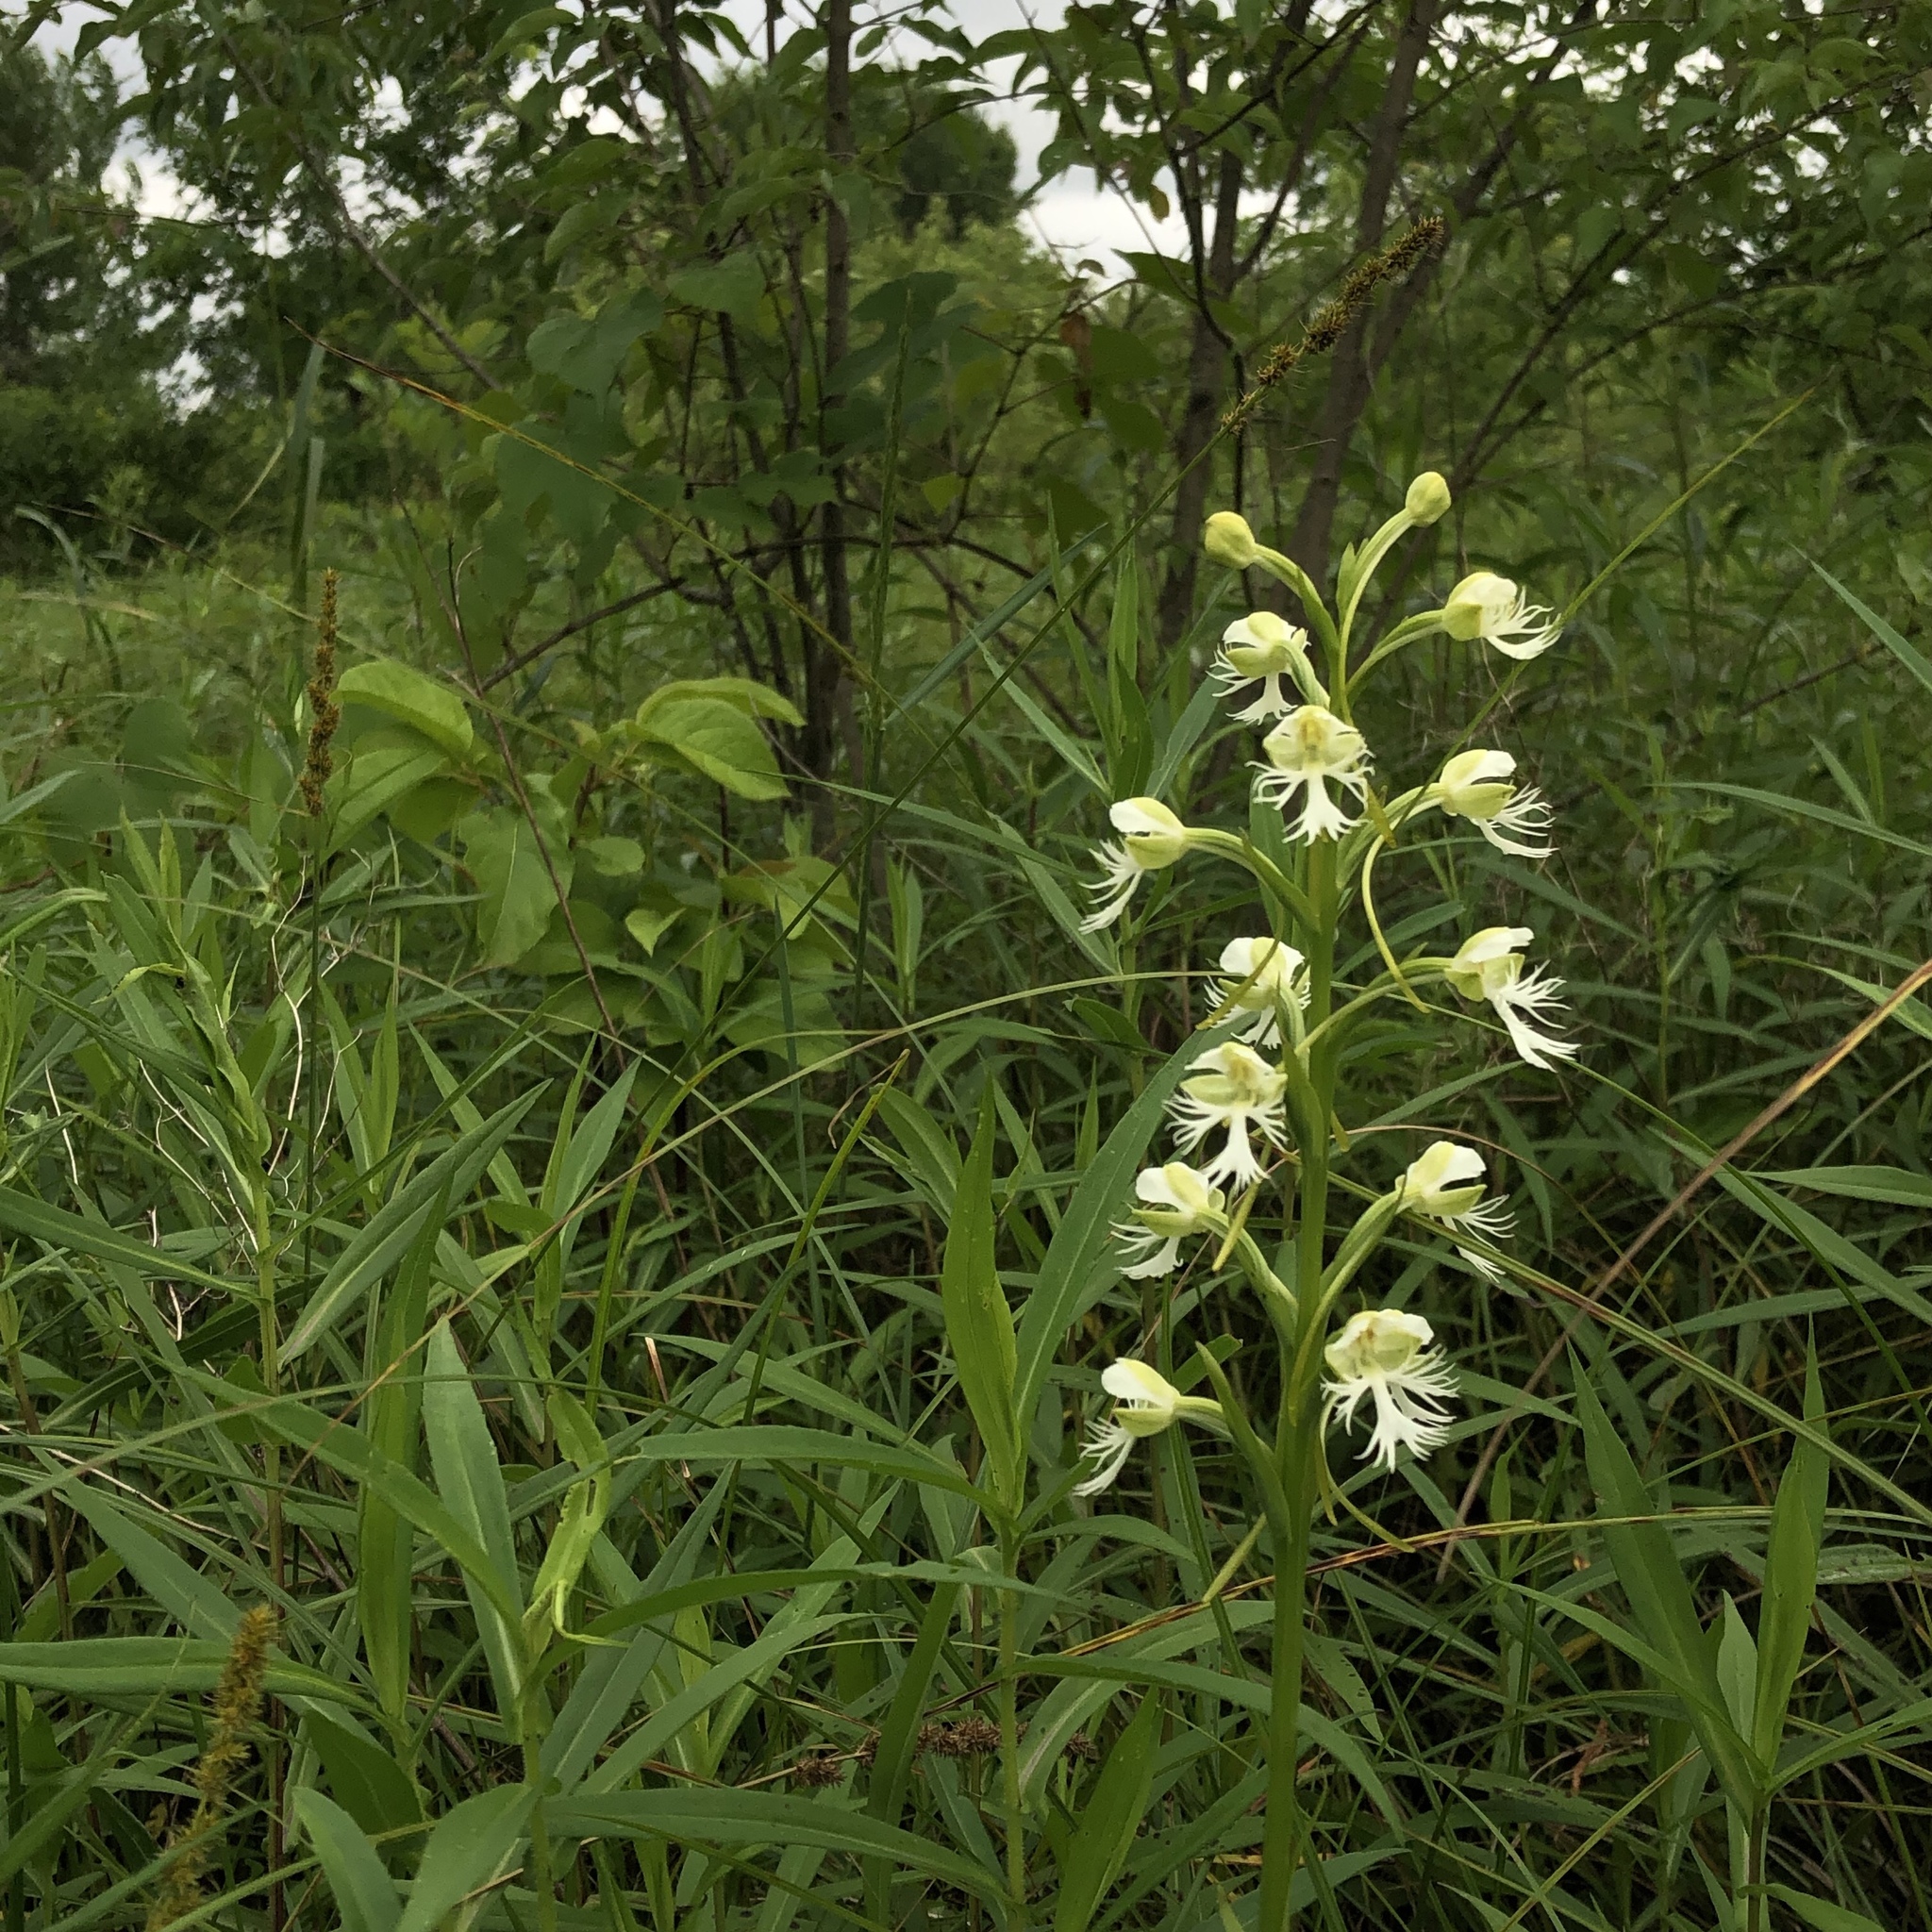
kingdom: Plantae
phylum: Tracheophyta
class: Liliopsida
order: Asparagales
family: Orchidaceae
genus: Platanthera
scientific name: Platanthera leucophaea
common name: Eastern prairie white-fringed orchid
